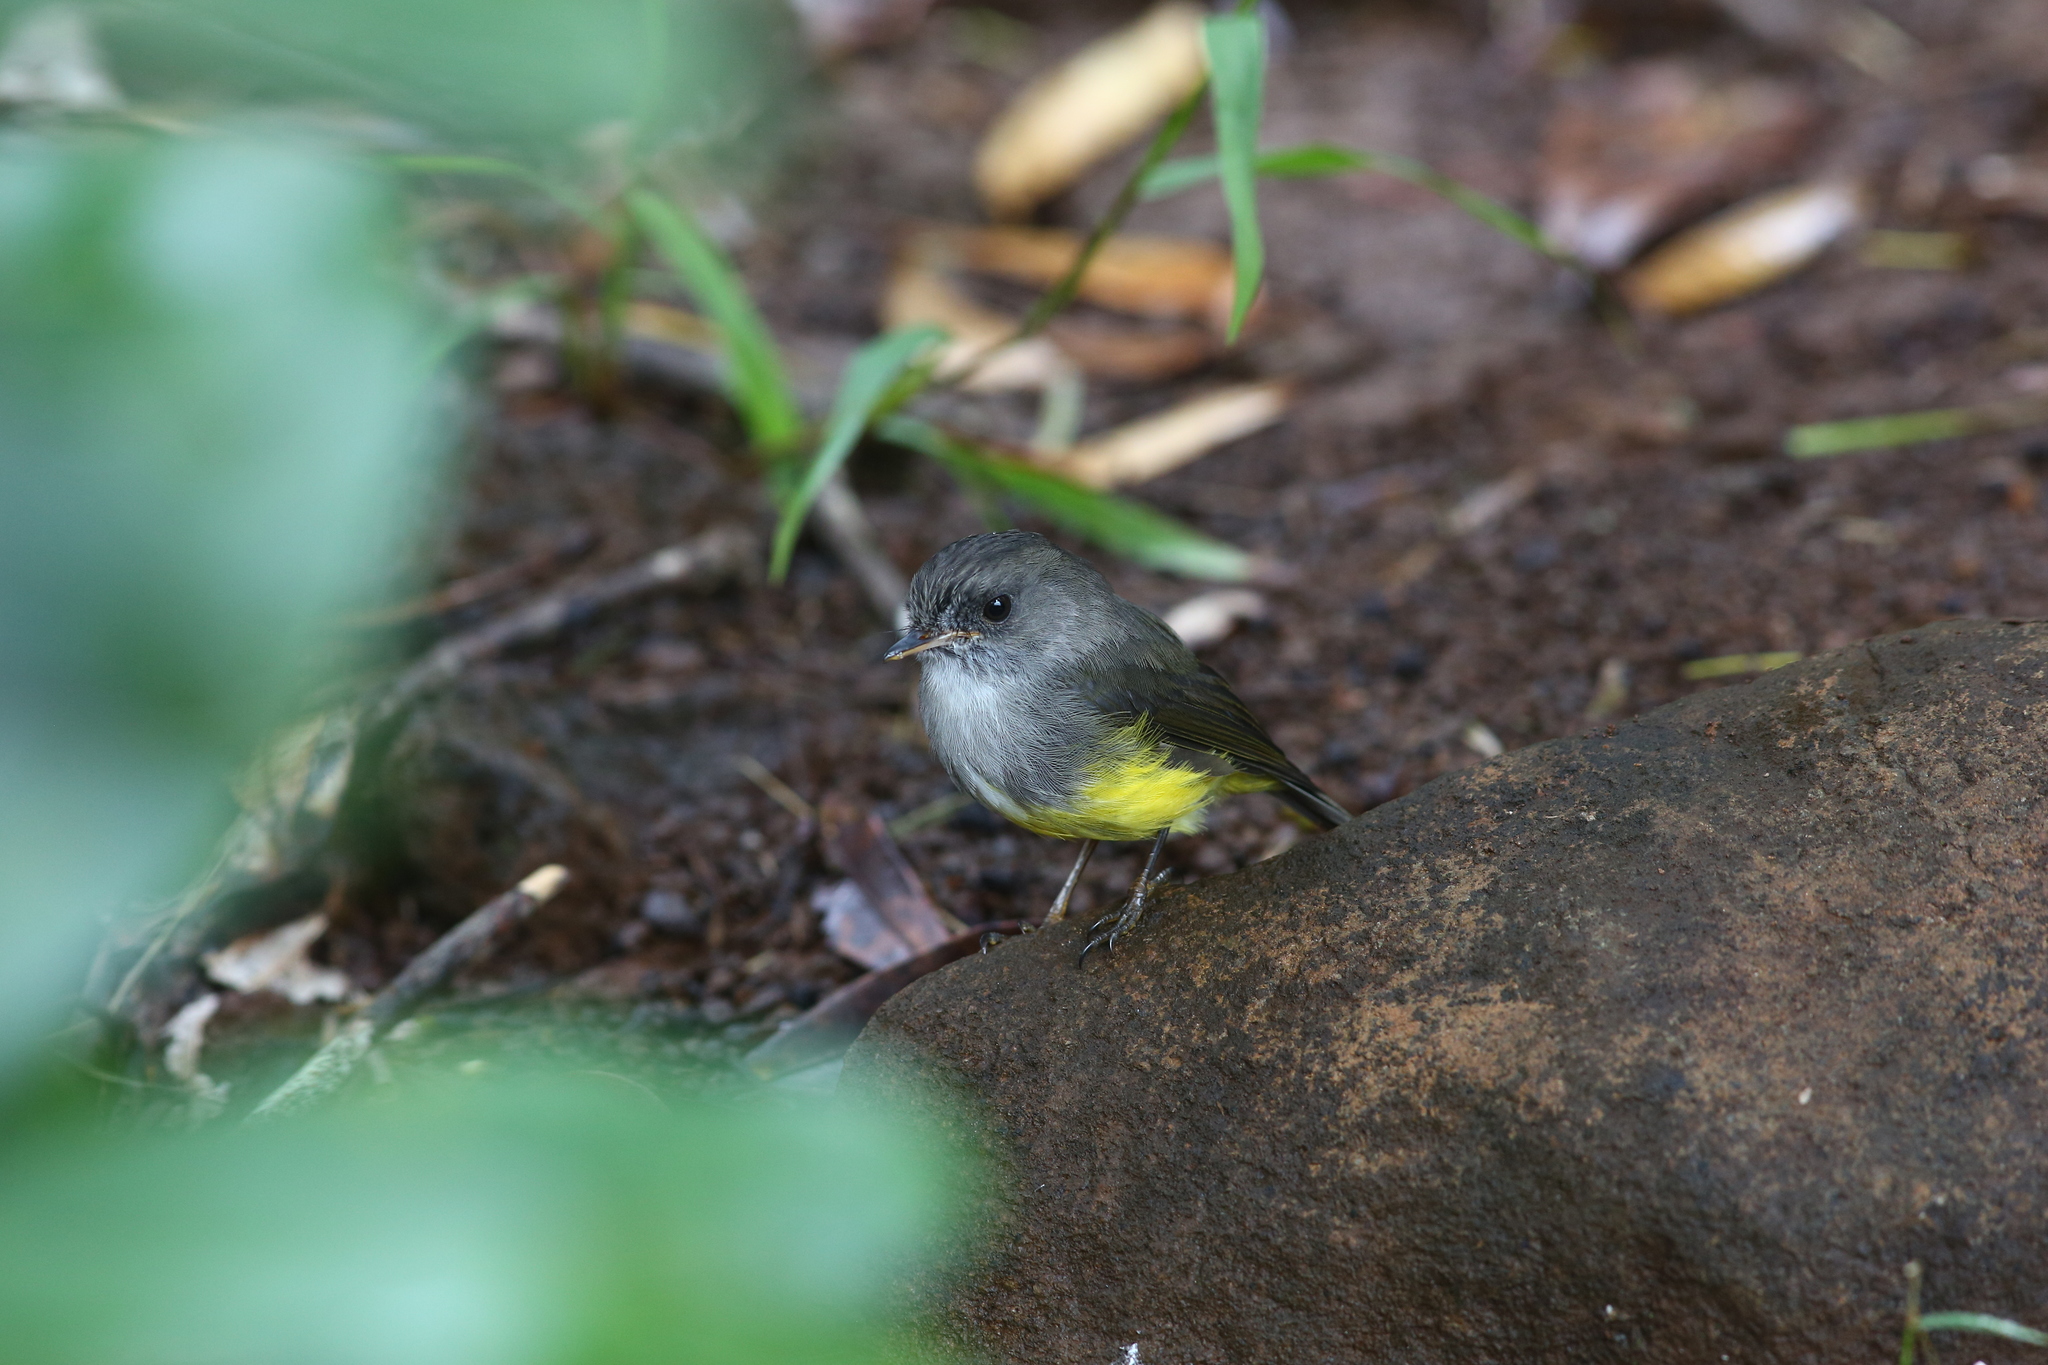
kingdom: Animalia
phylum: Chordata
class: Aves
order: Passeriformes
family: Petroicidae
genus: Microeca
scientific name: Microeca flaviventris
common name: Yellow-bellied flyrobin
